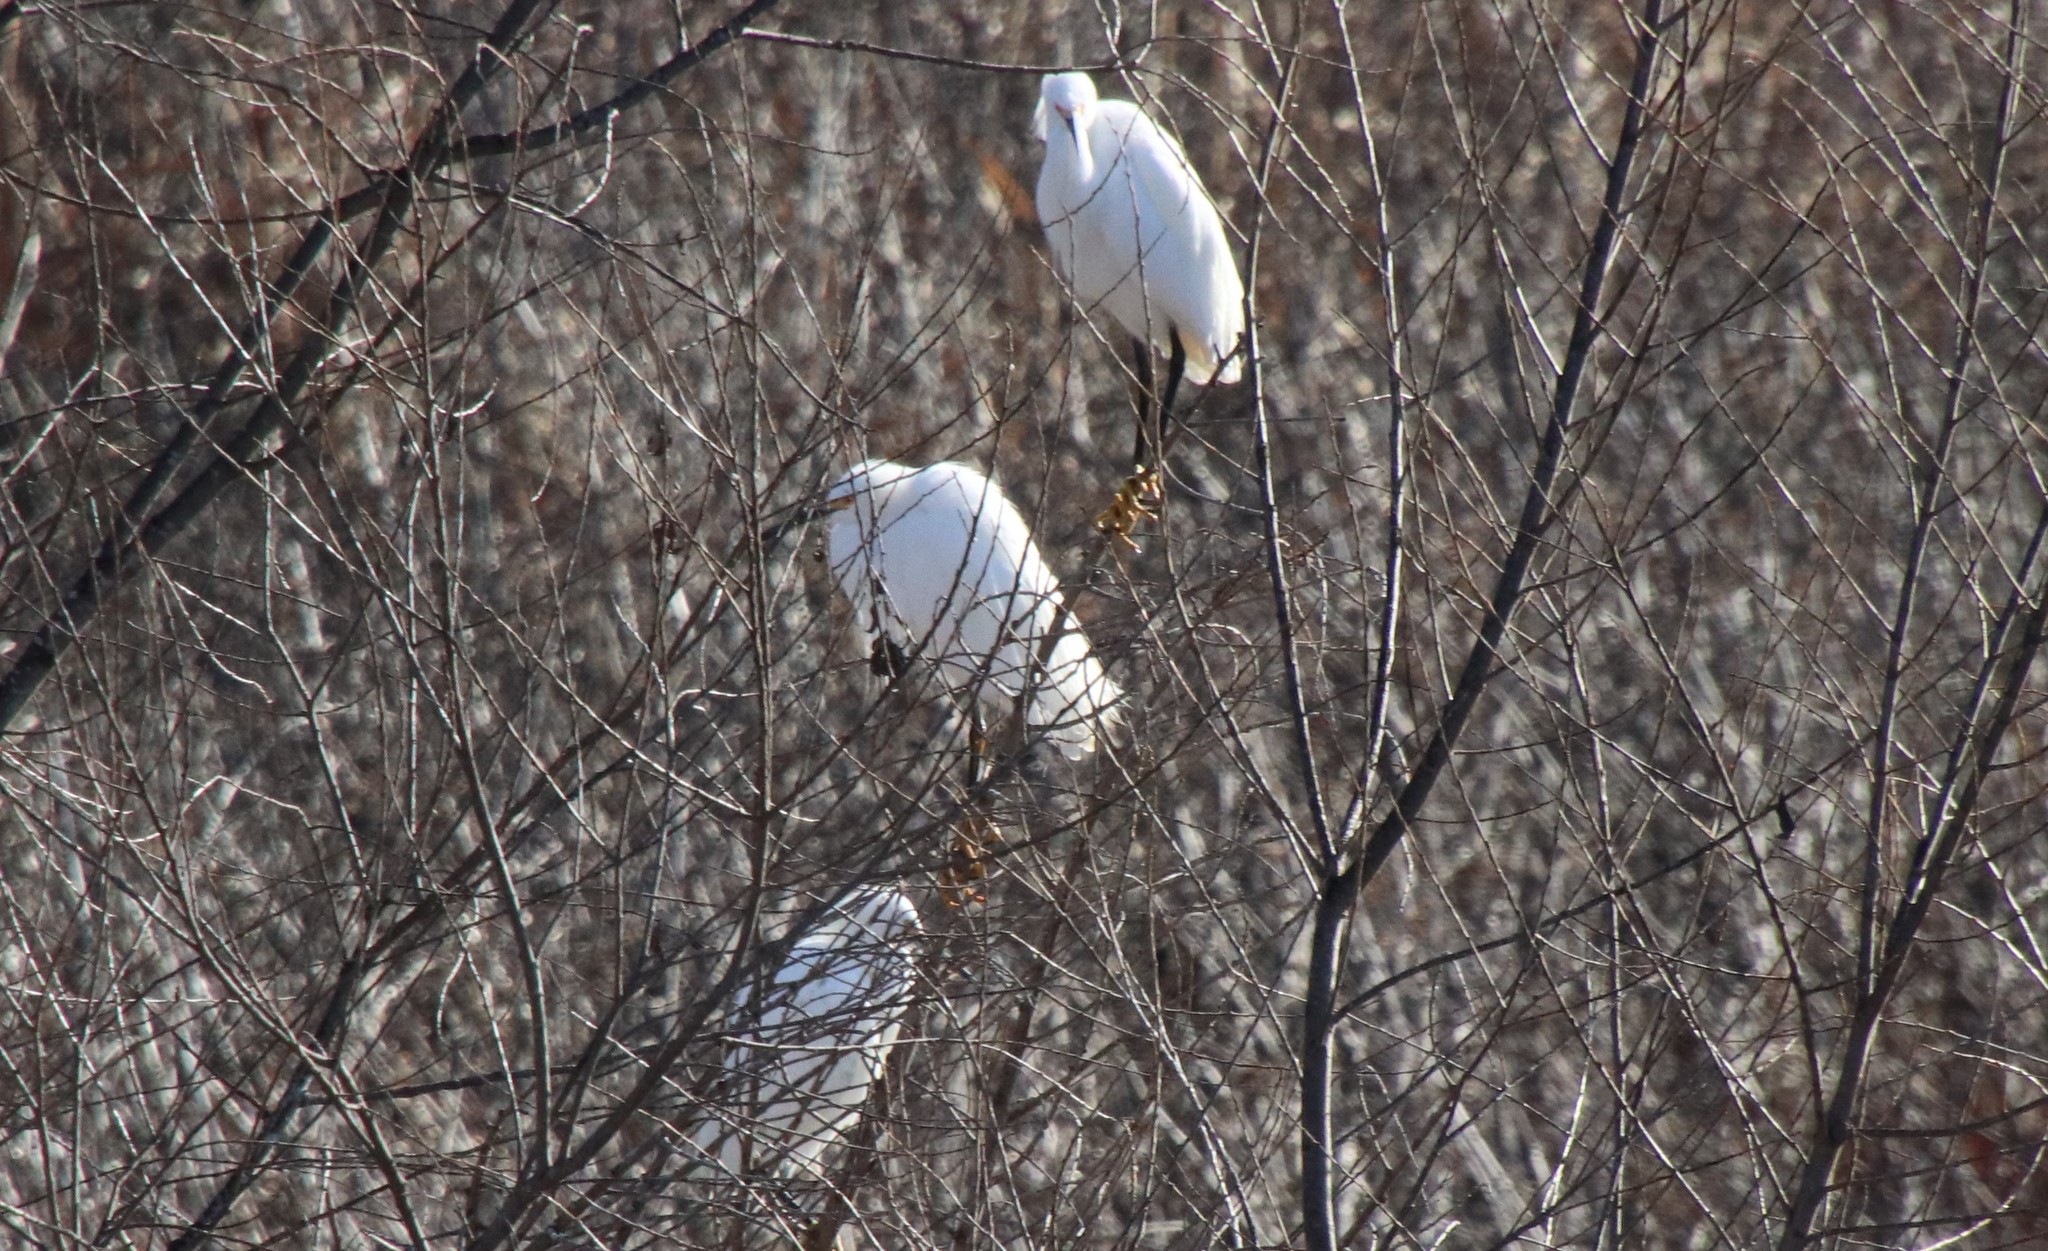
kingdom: Animalia
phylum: Chordata
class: Aves
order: Pelecaniformes
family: Ardeidae
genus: Egretta
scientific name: Egretta thula
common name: Snowy egret
